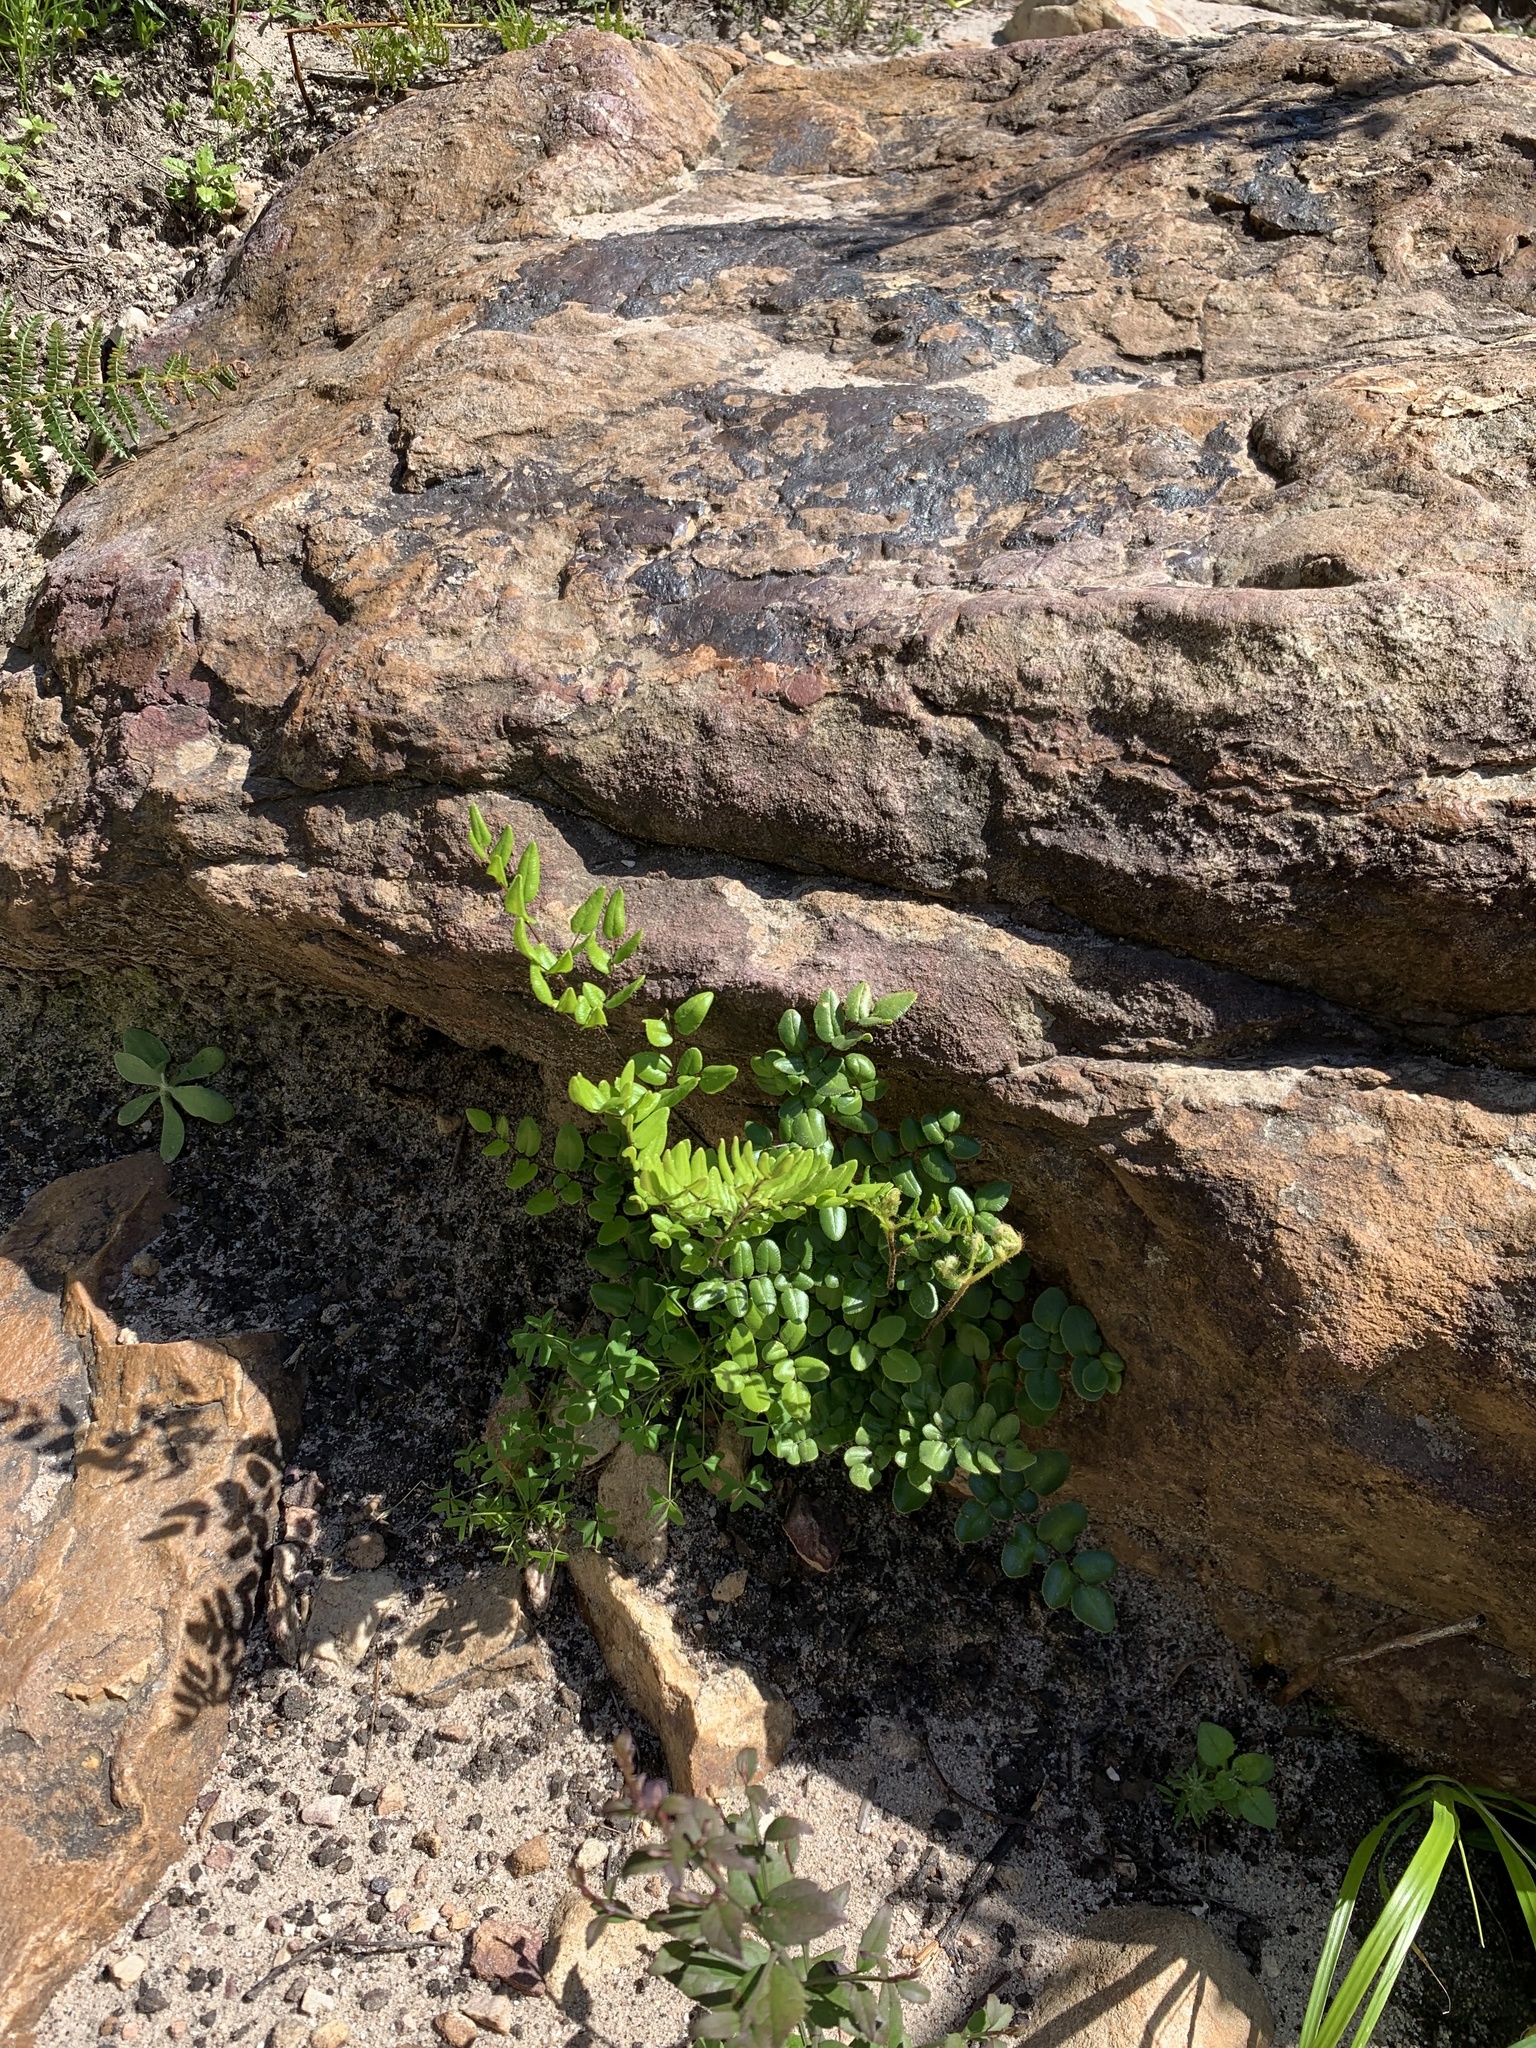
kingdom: Plantae
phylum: Tracheophyta
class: Polypodiopsida
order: Polypodiales
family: Pteridaceae
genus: Pellaea
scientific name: Pellaea pteroides
